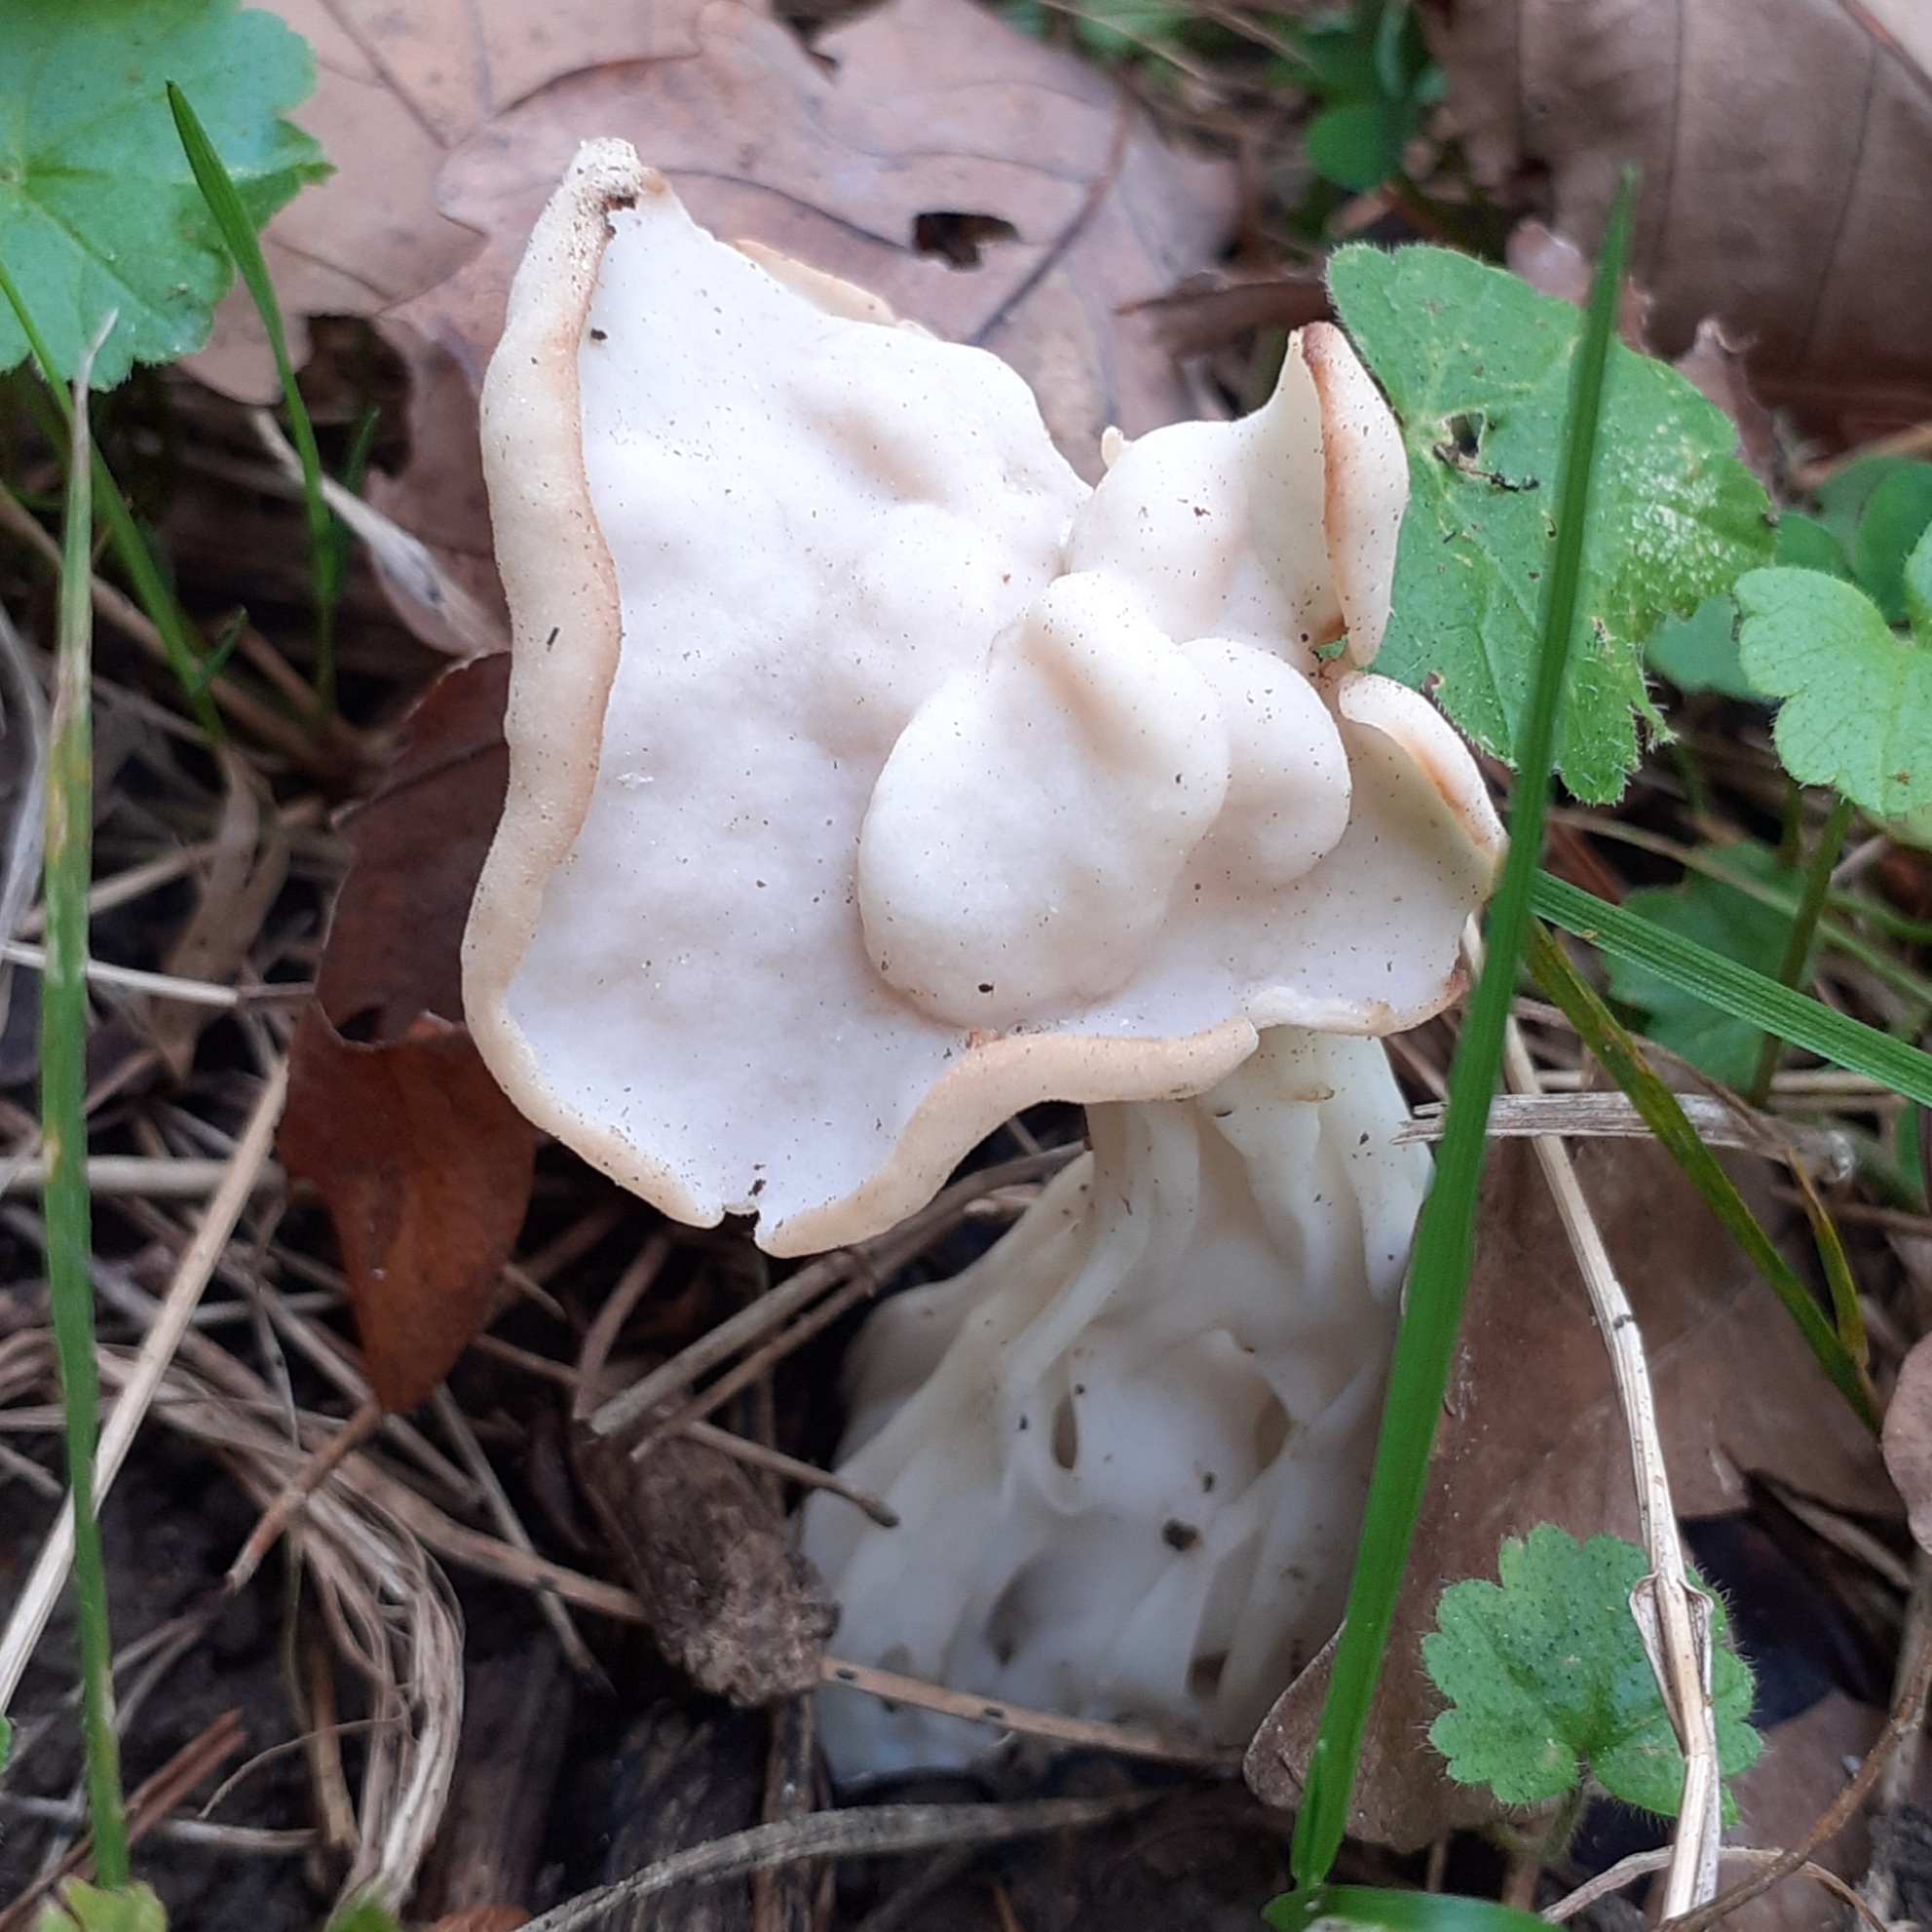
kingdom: Fungi
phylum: Ascomycota
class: Pezizomycetes
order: Pezizales
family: Helvellaceae
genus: Helvella
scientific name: Helvella crispa
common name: White saddle
